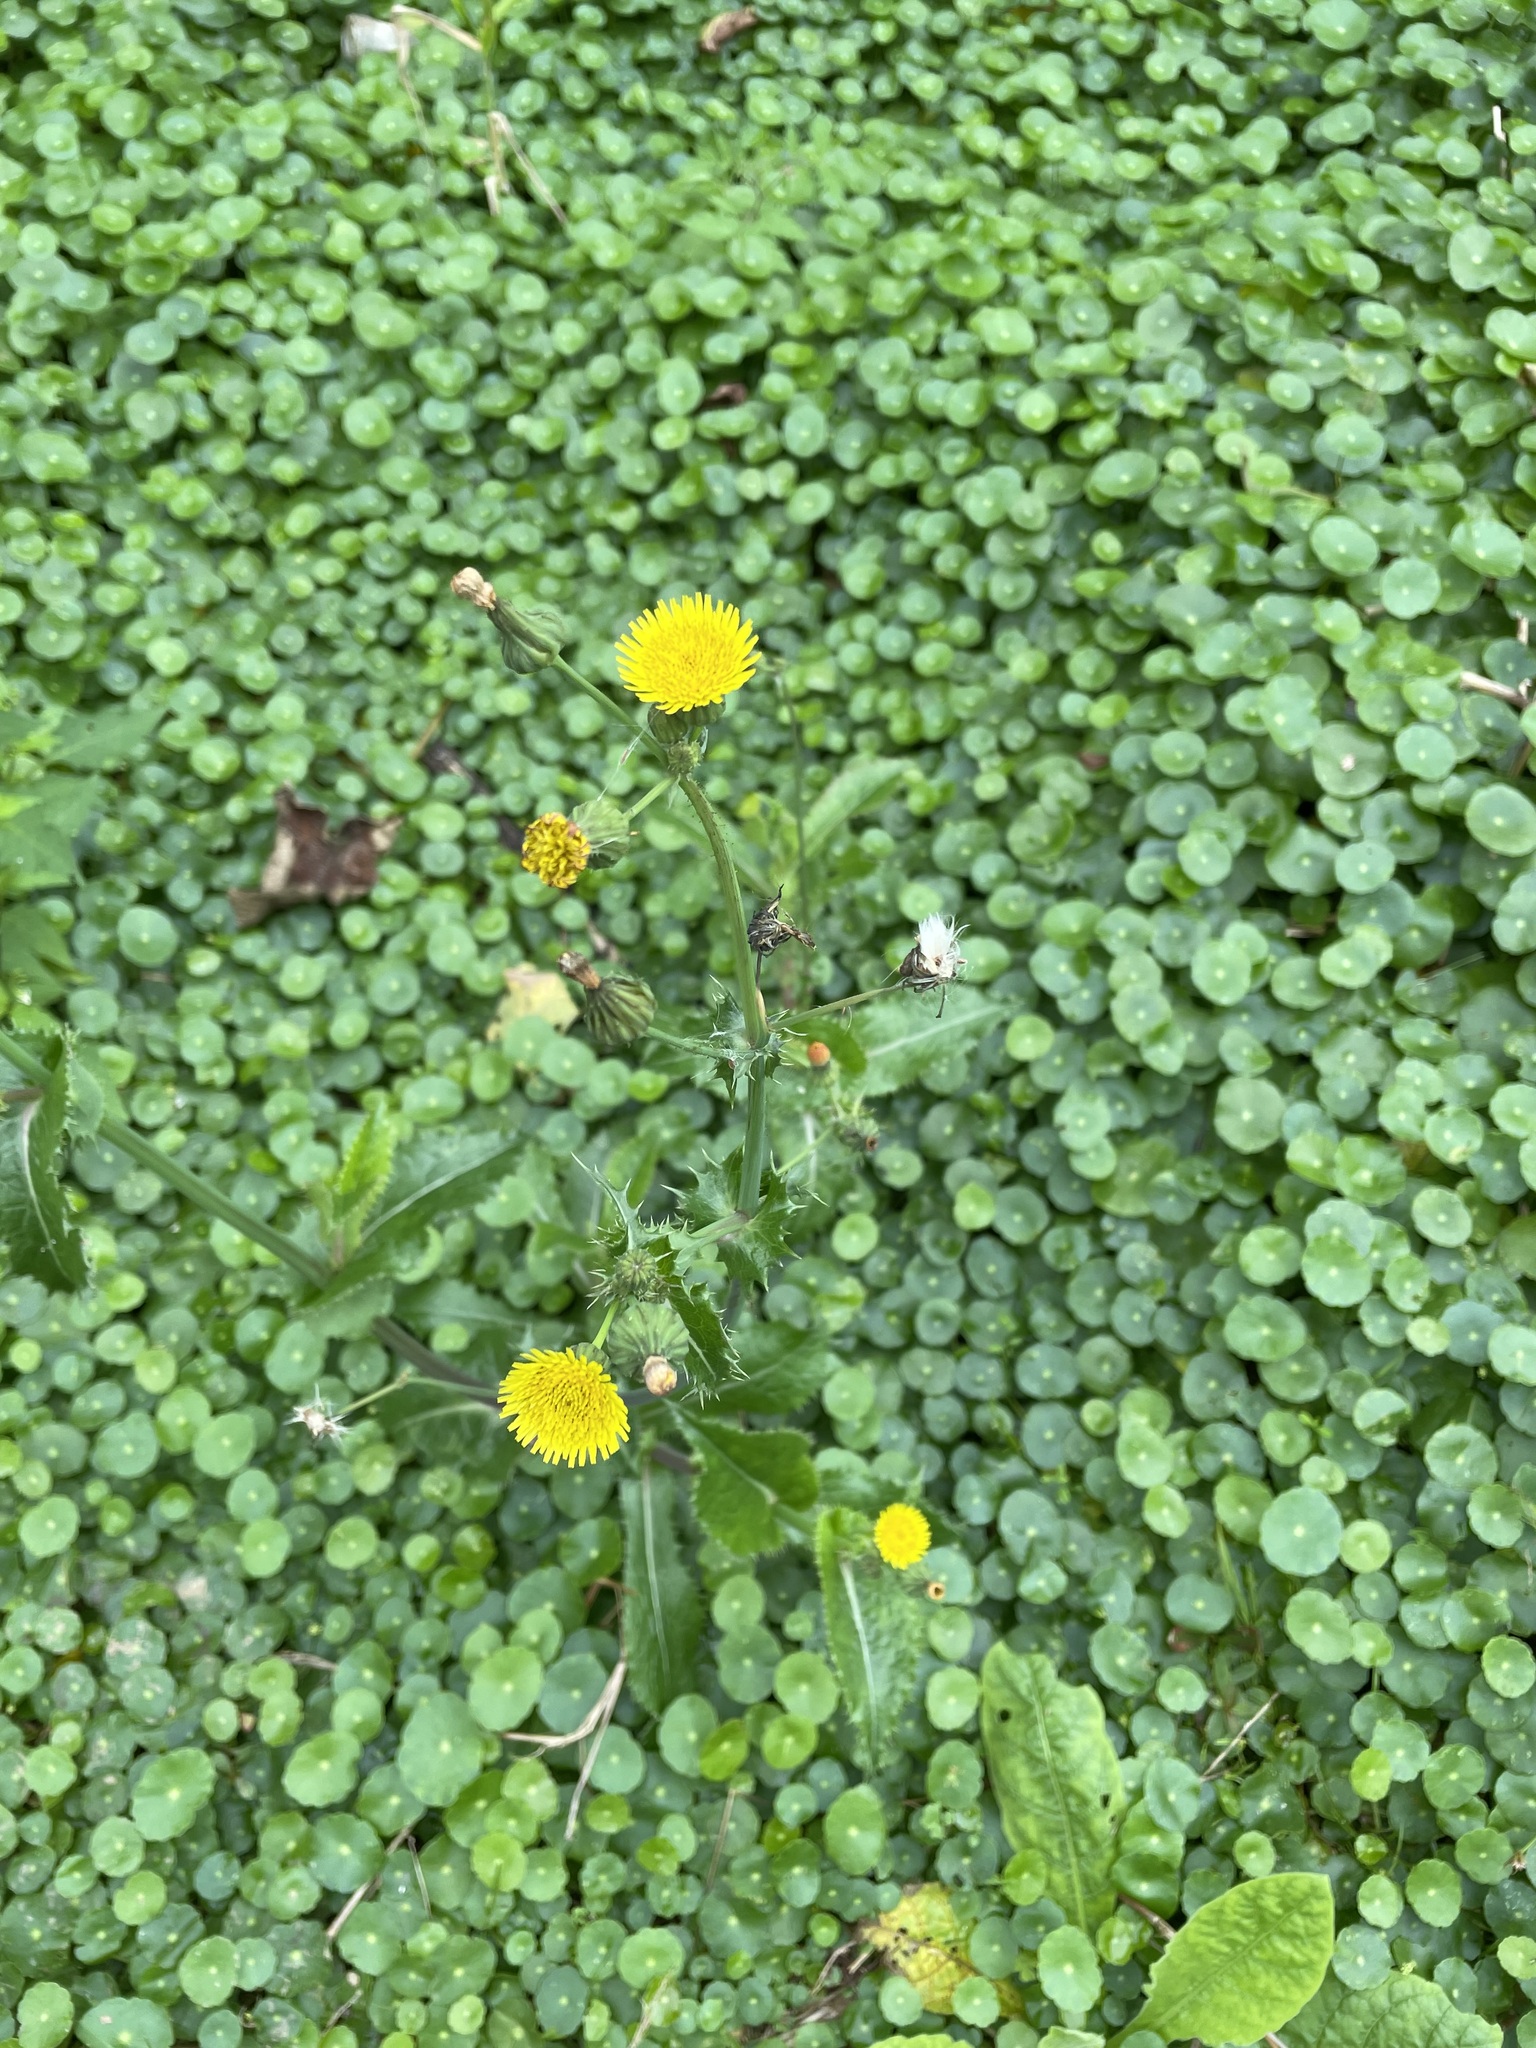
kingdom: Plantae
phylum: Tracheophyta
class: Magnoliopsida
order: Asterales
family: Asteraceae
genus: Sonchus
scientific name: Sonchus oleraceus
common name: Common sowthistle
